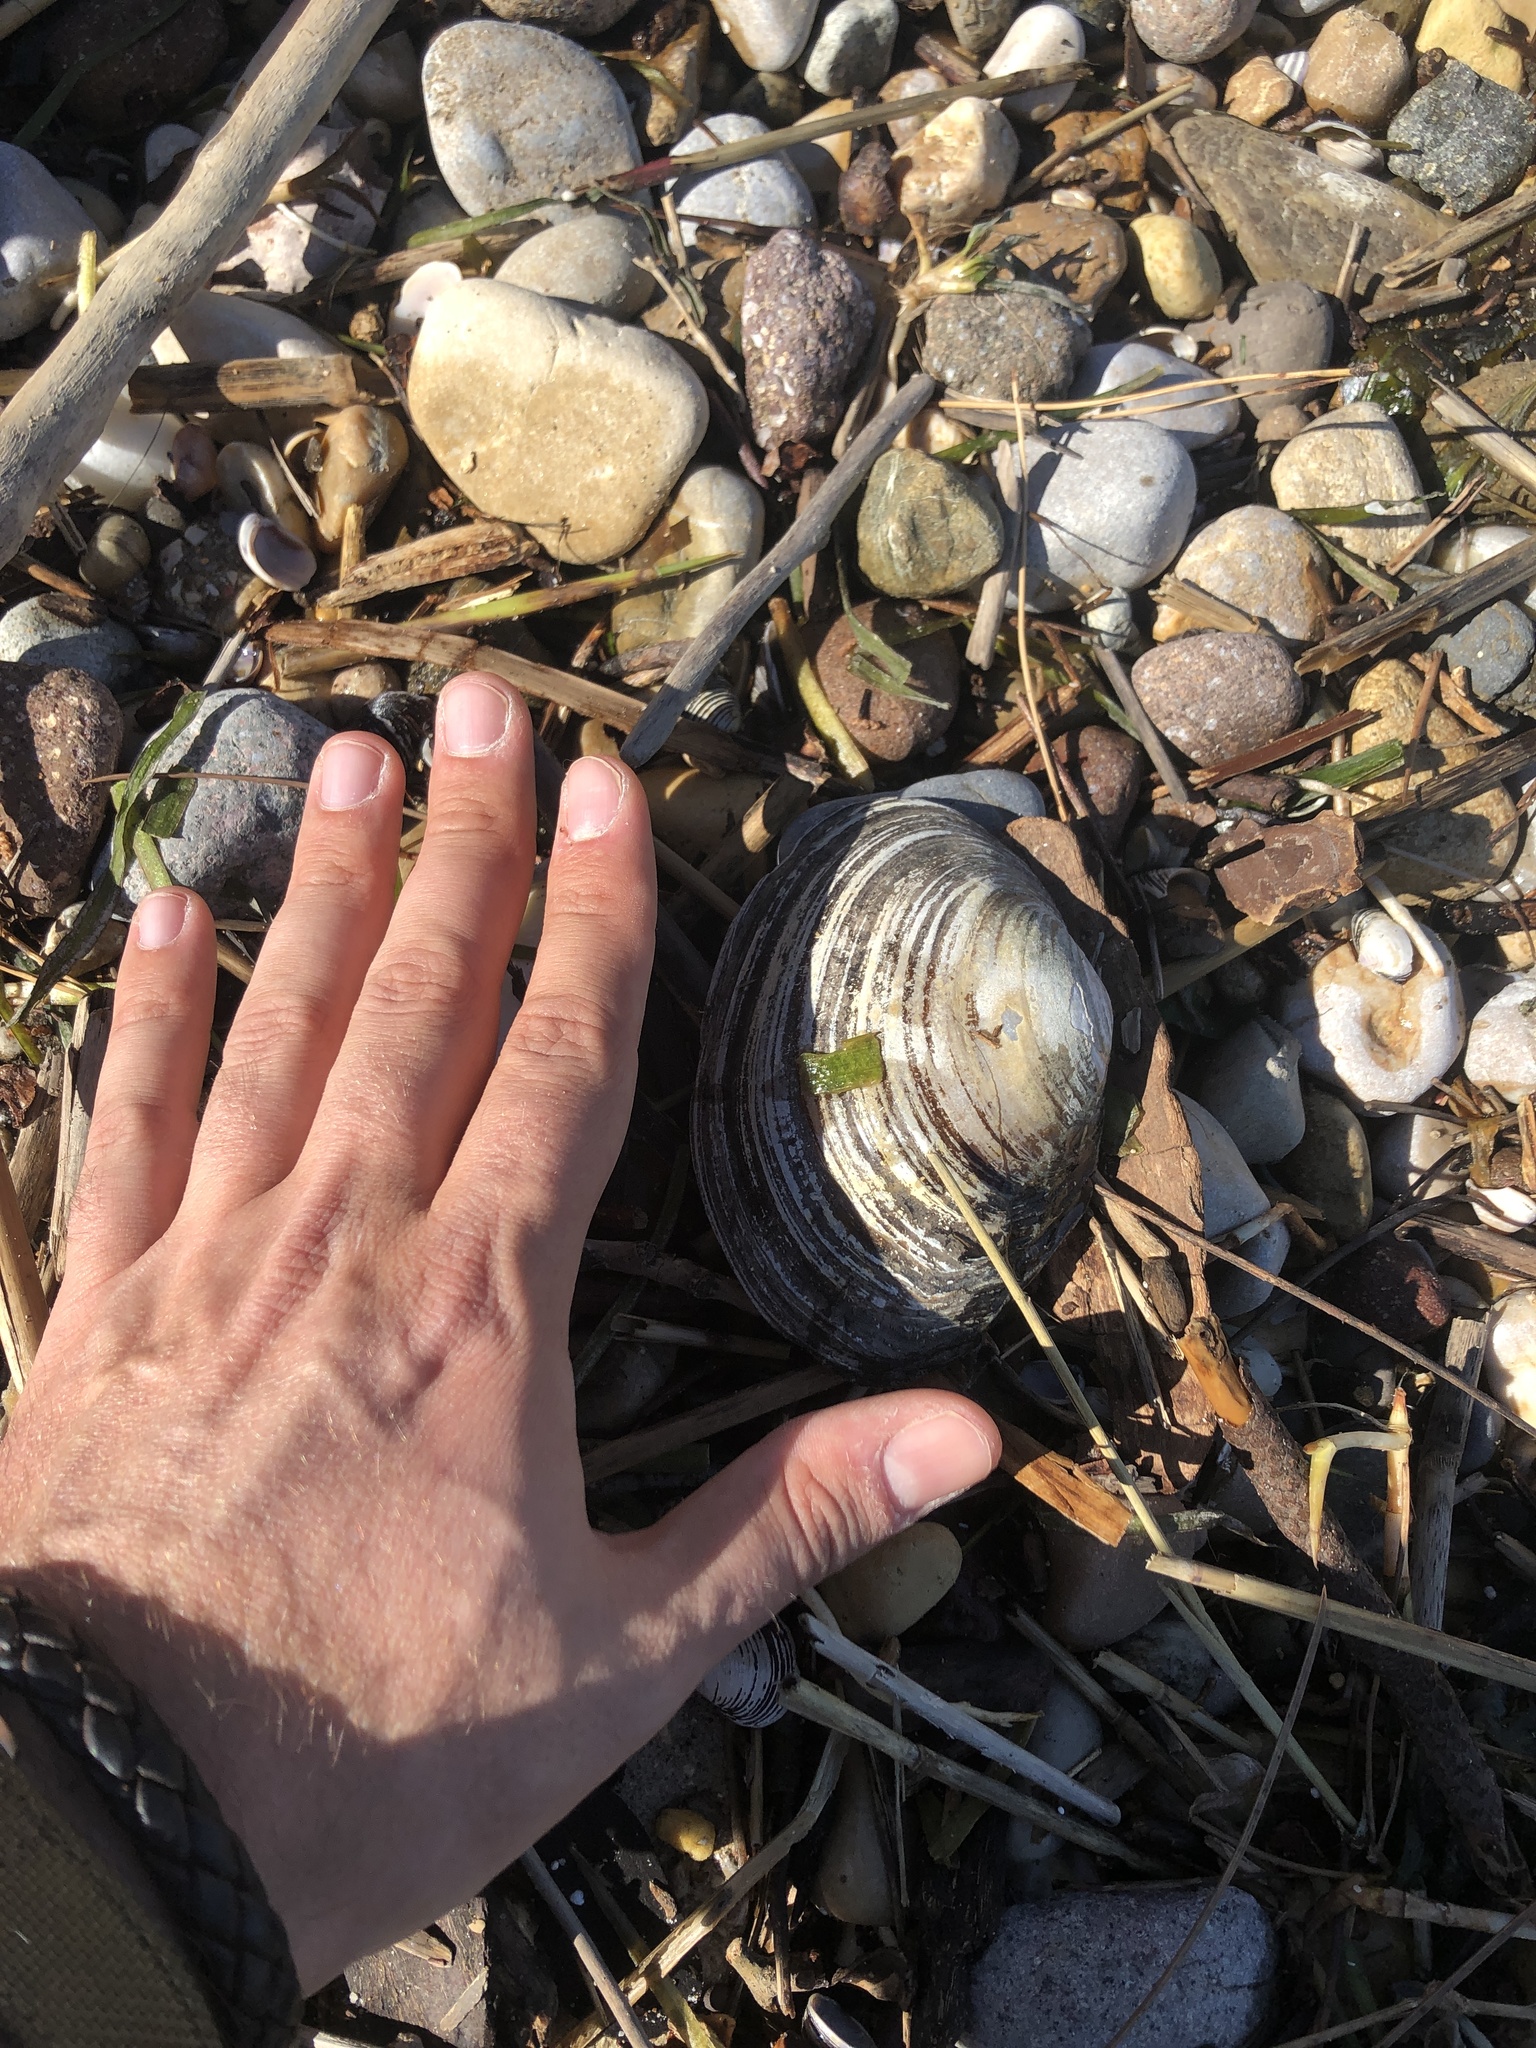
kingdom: Animalia
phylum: Mollusca
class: Bivalvia
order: Unionida
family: Unionidae
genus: Sinanodonta
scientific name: Sinanodonta woodiana
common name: Chinese pond mussel
